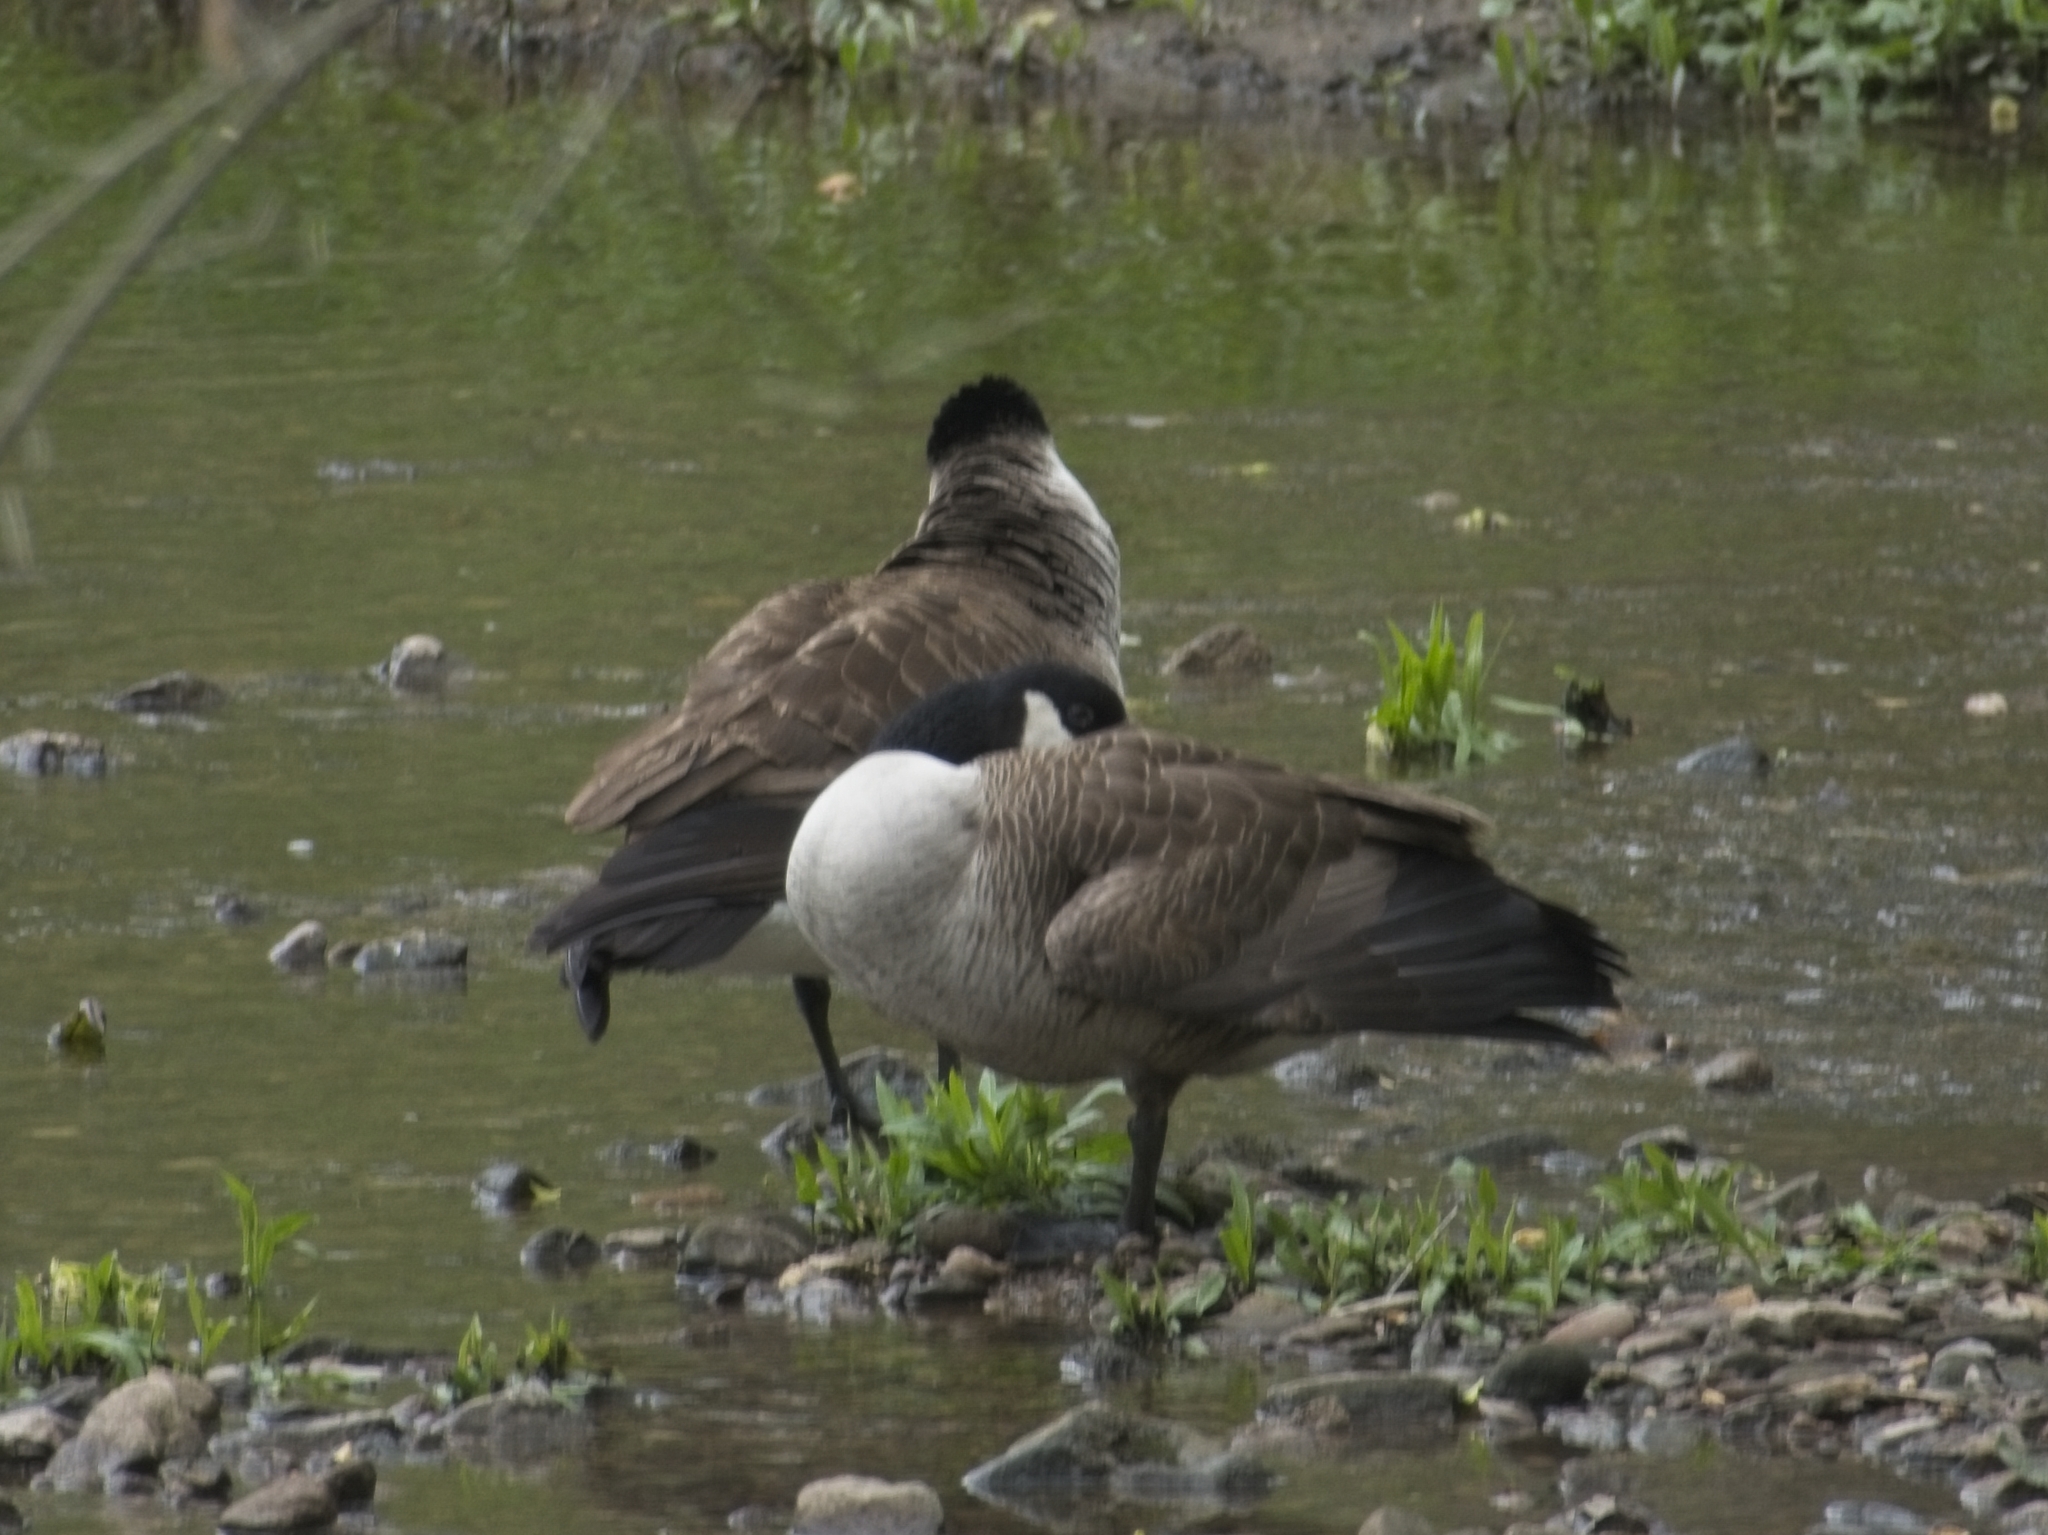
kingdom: Animalia
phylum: Chordata
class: Aves
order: Anseriformes
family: Anatidae
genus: Branta
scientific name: Branta canadensis
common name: Canada goose
